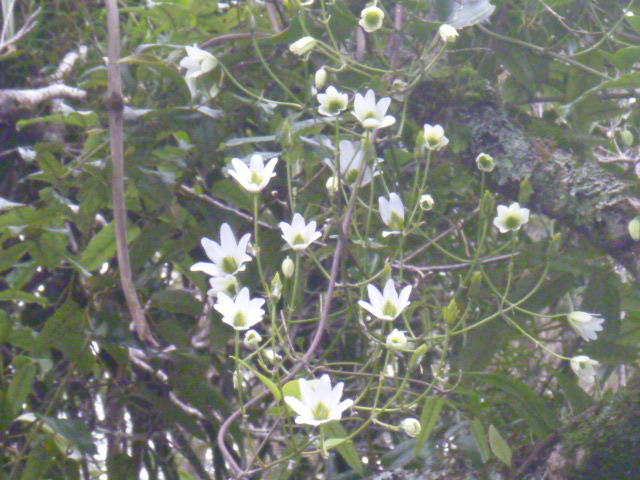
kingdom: Plantae
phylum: Tracheophyta
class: Magnoliopsida
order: Ranunculales
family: Ranunculaceae
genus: Clematis
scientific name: Clematis paniculata
